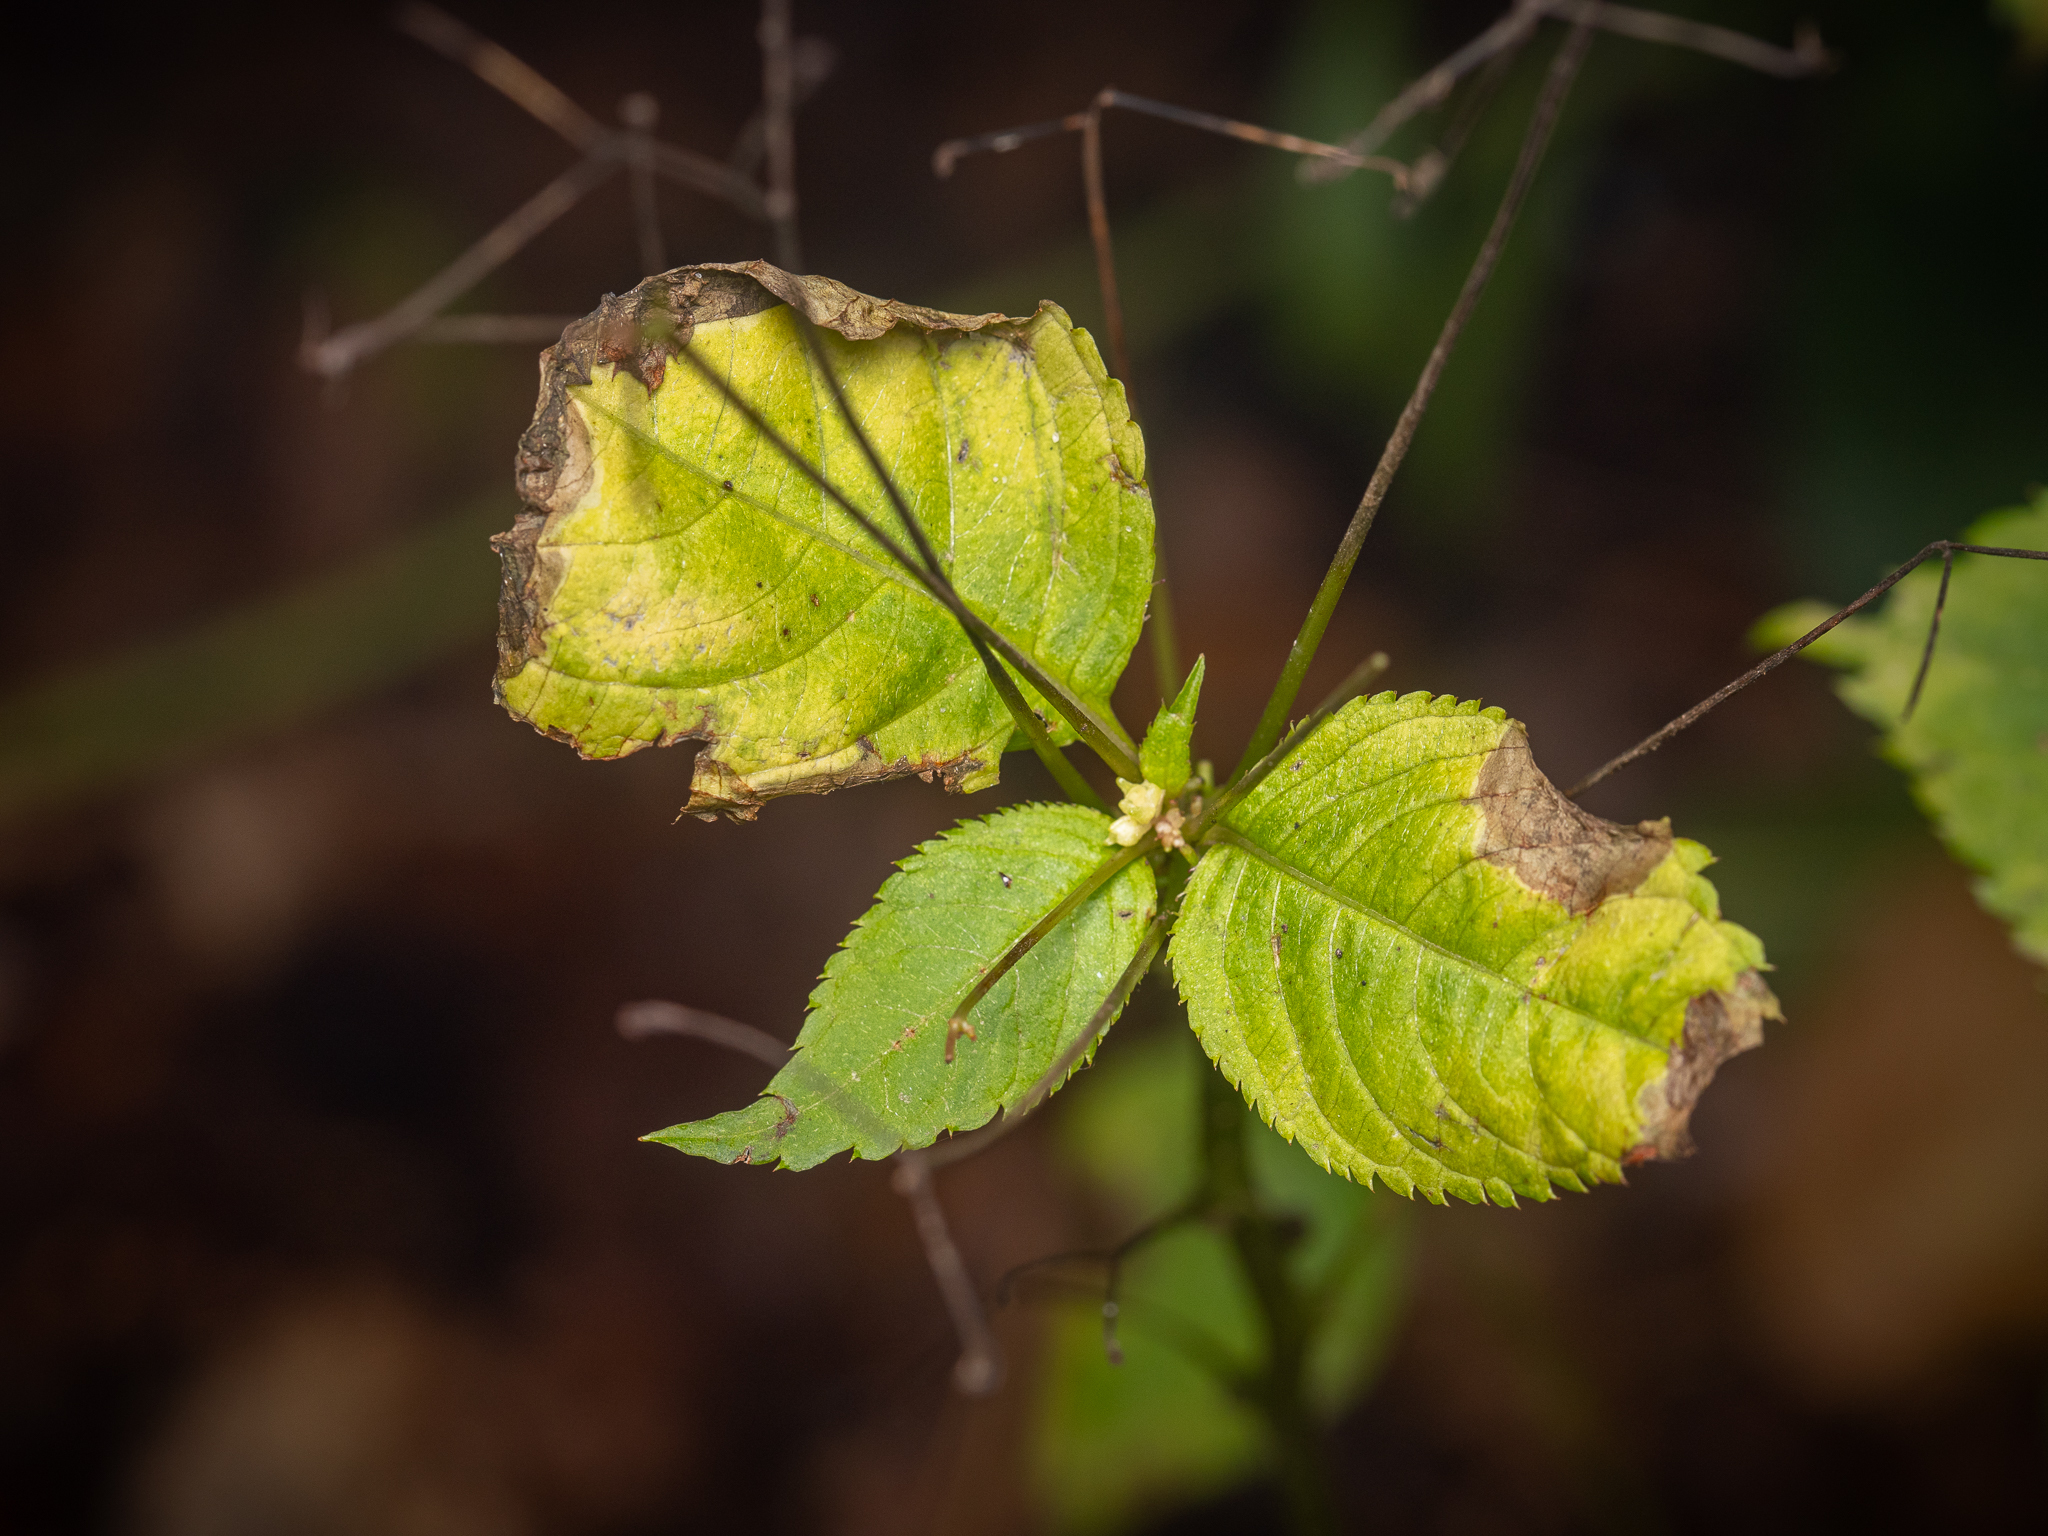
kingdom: Plantae
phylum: Tracheophyta
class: Magnoliopsida
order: Ericales
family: Balsaminaceae
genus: Impatiens
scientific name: Impatiens parviflora
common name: Small balsam
